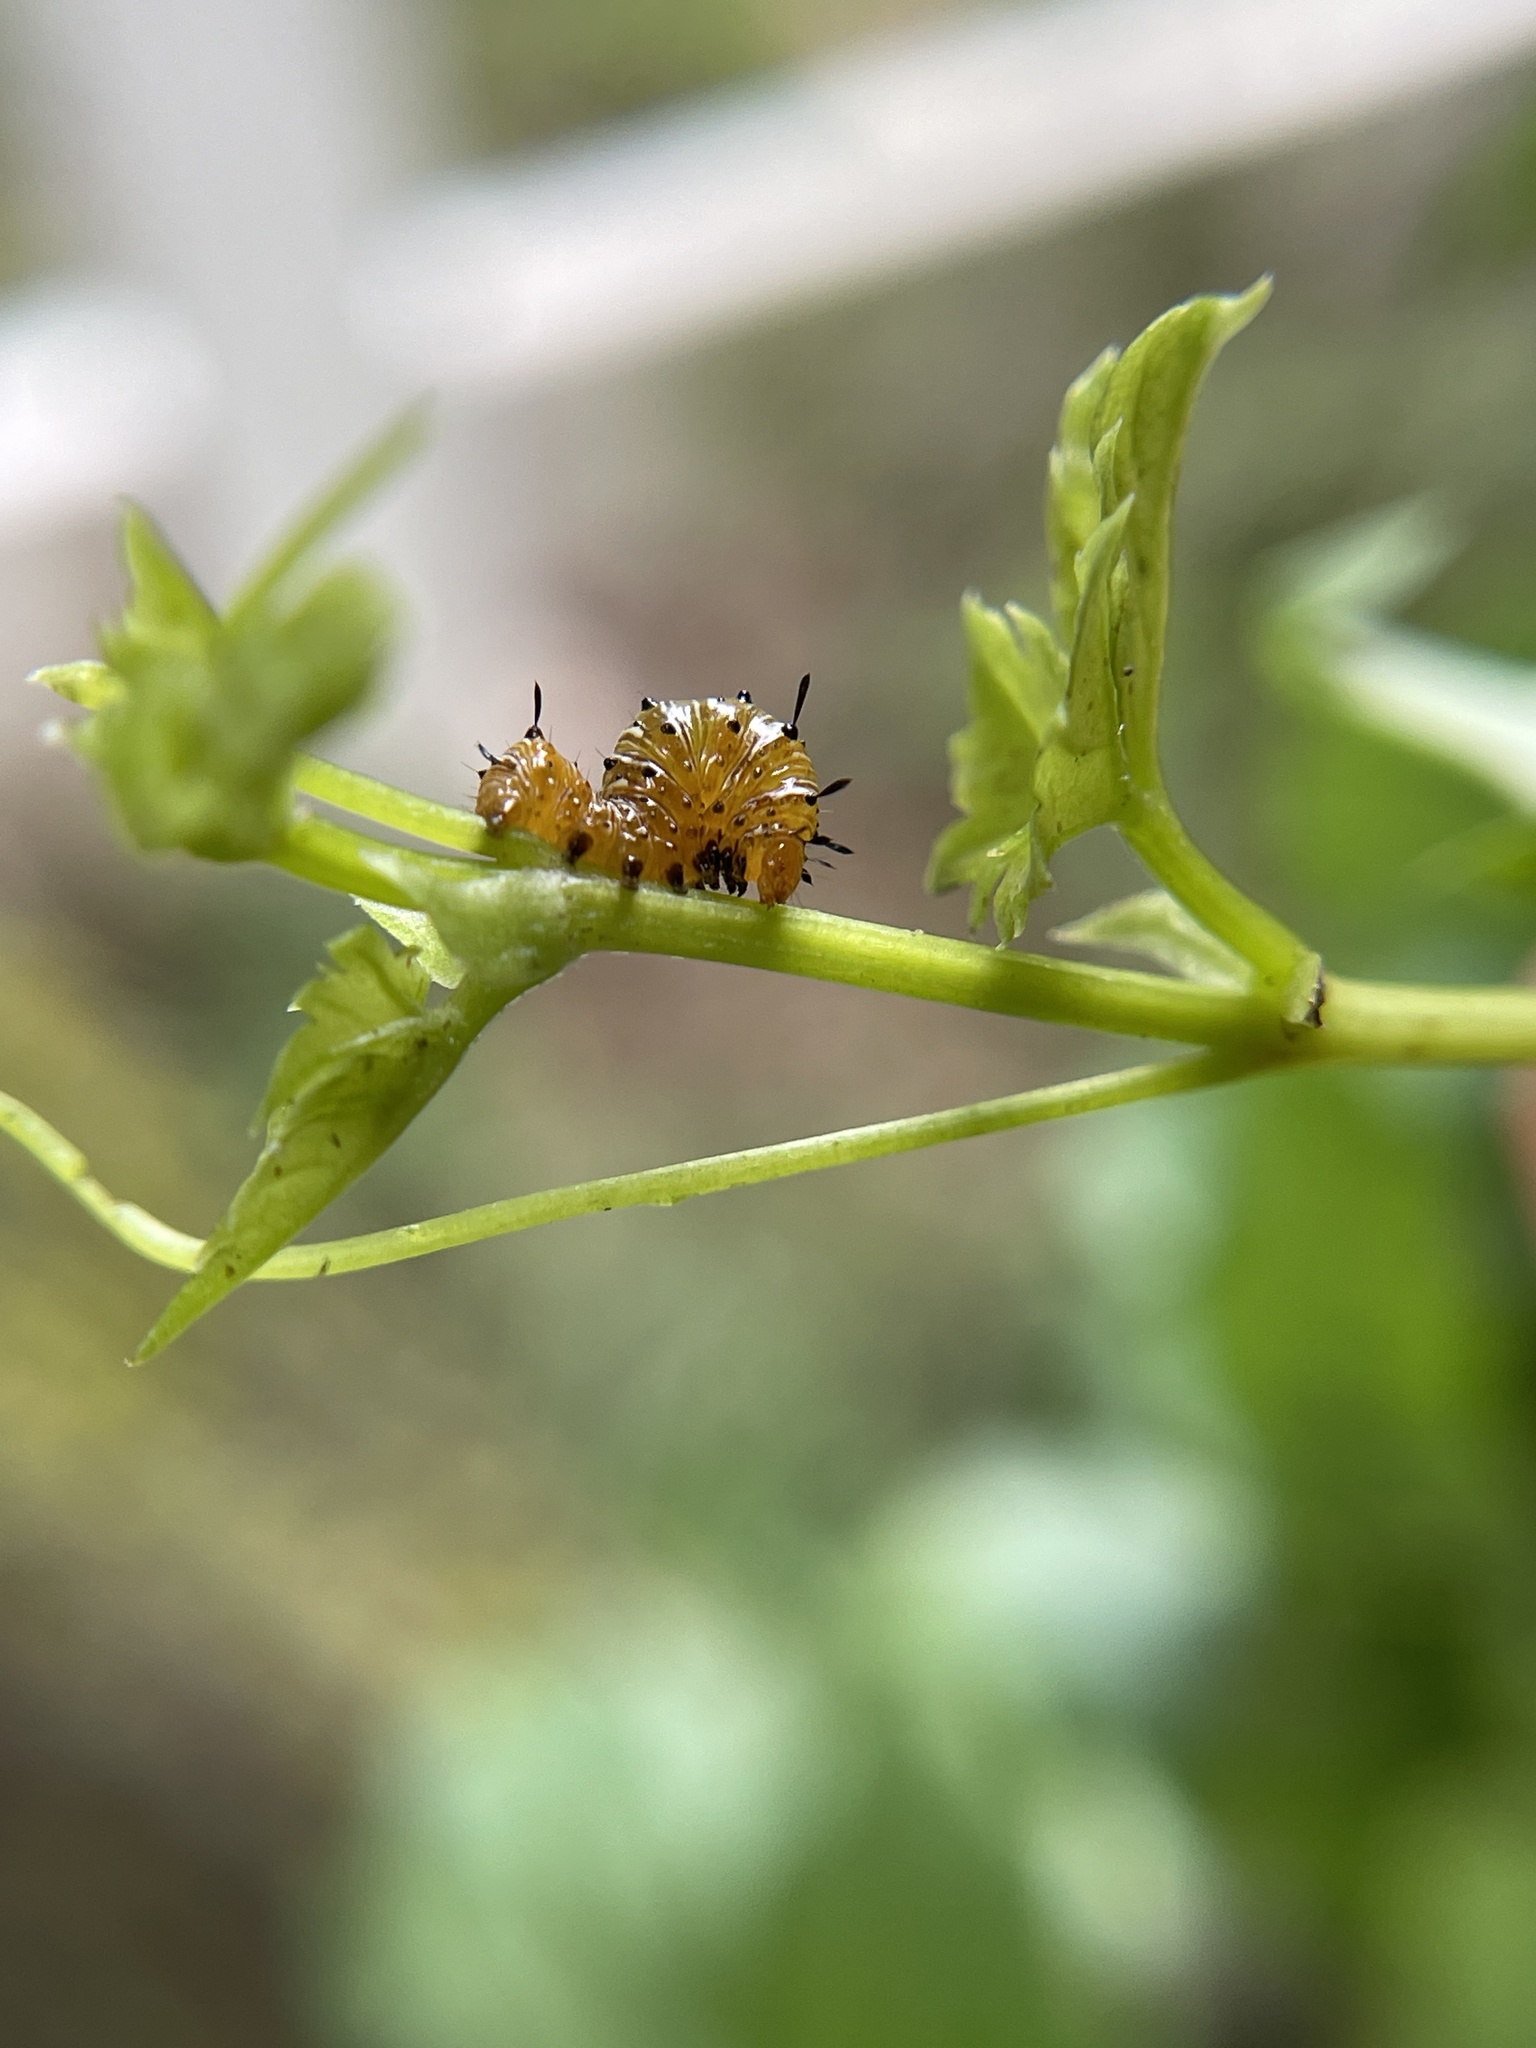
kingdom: Animalia
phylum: Arthropoda
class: Insecta
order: Lepidoptera
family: Noctuidae
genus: Xerociris
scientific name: Xerociris wilsonii
